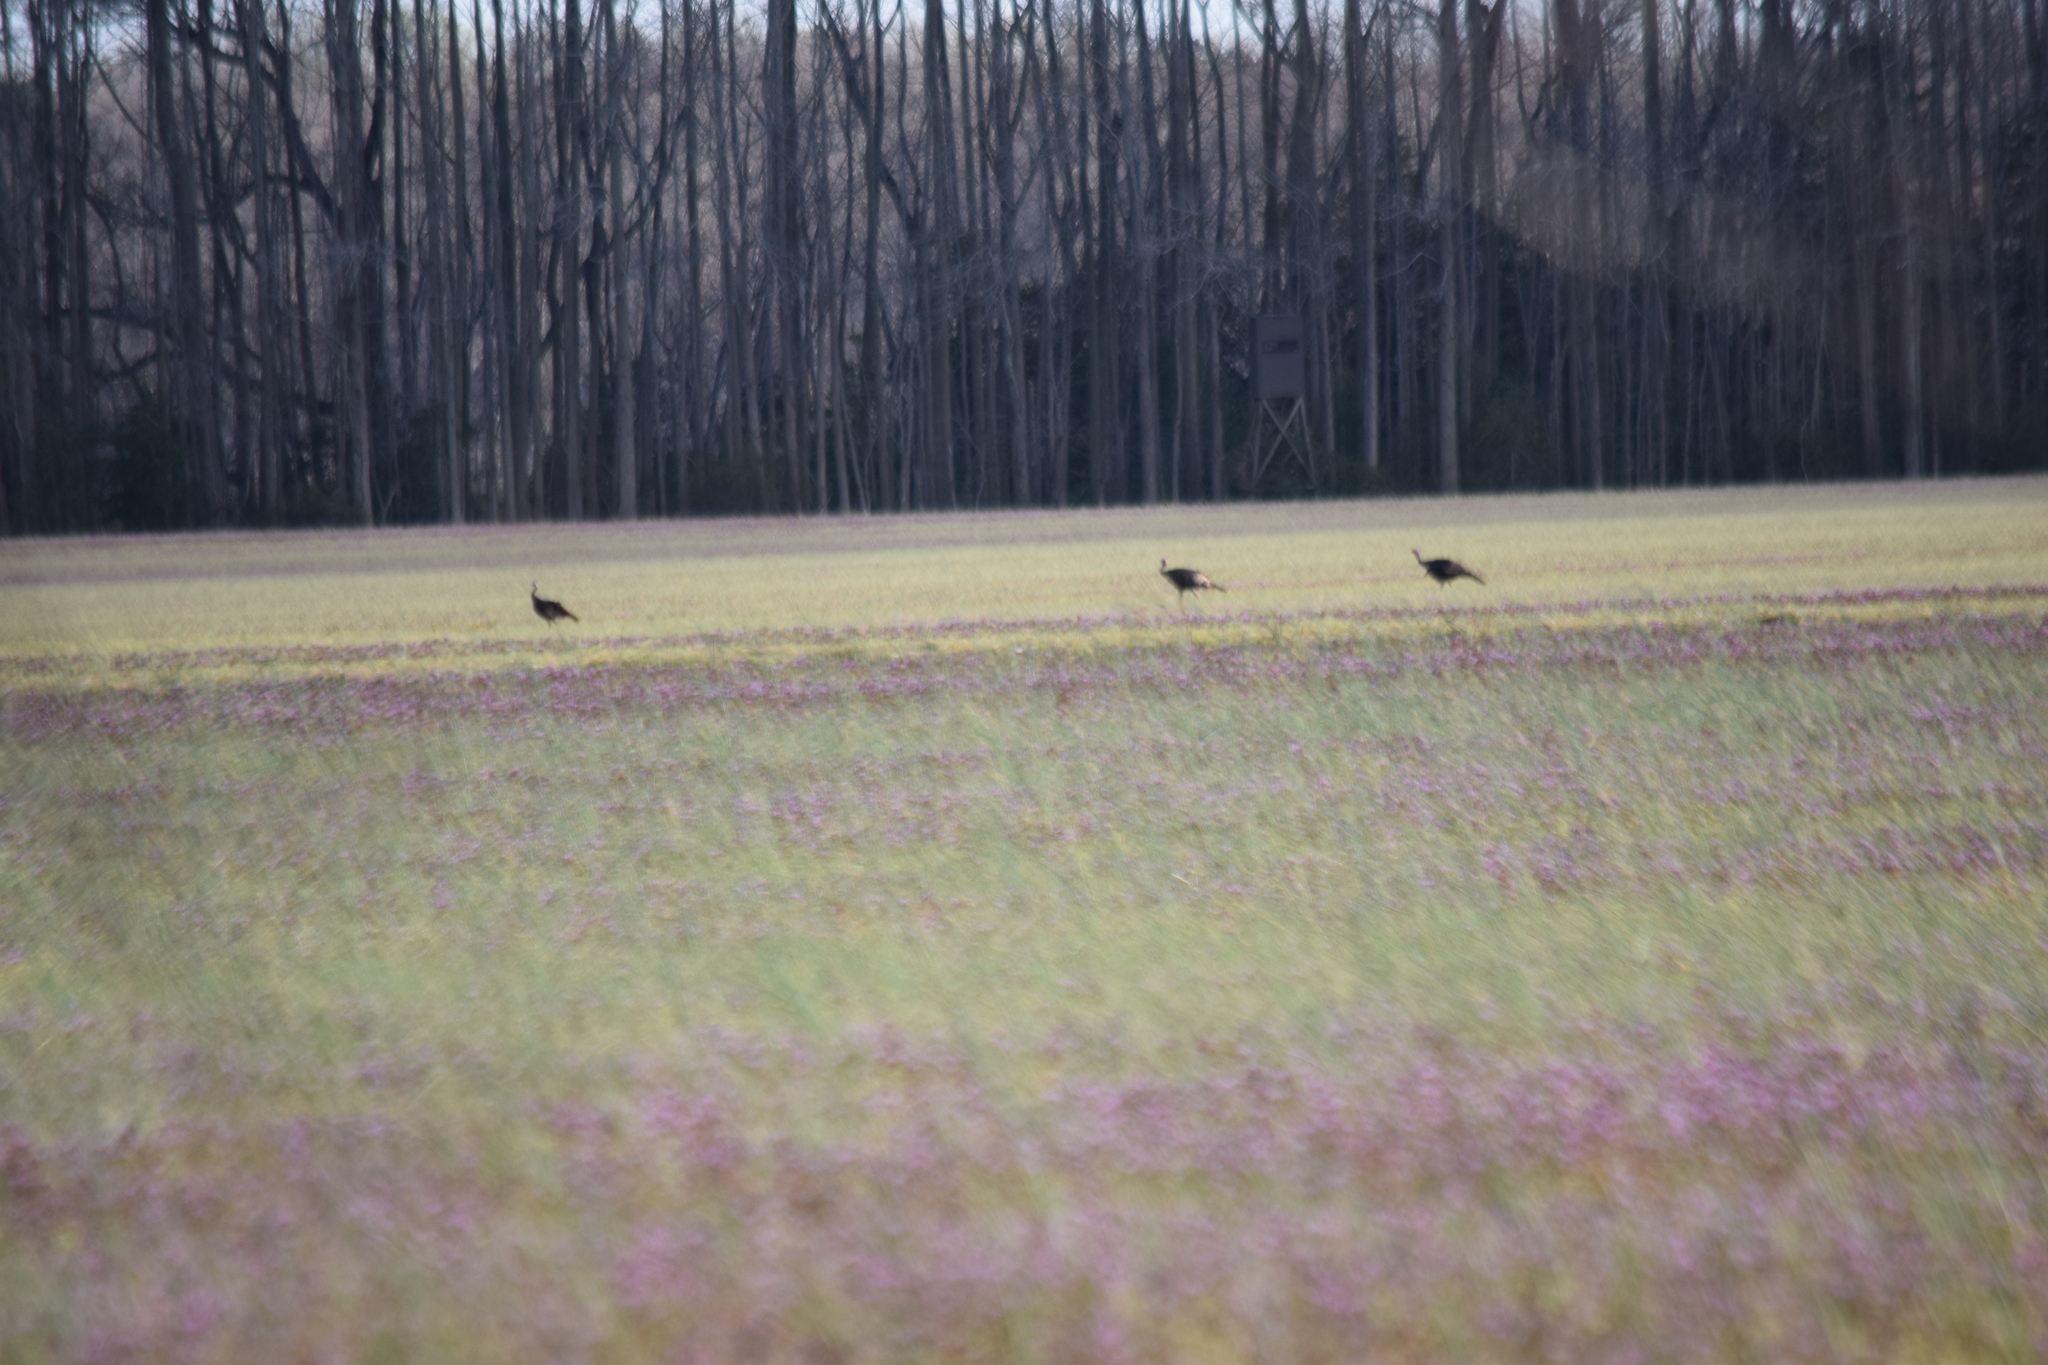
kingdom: Animalia
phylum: Chordata
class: Aves
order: Galliformes
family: Phasianidae
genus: Meleagris
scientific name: Meleagris gallopavo
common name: Wild turkey
